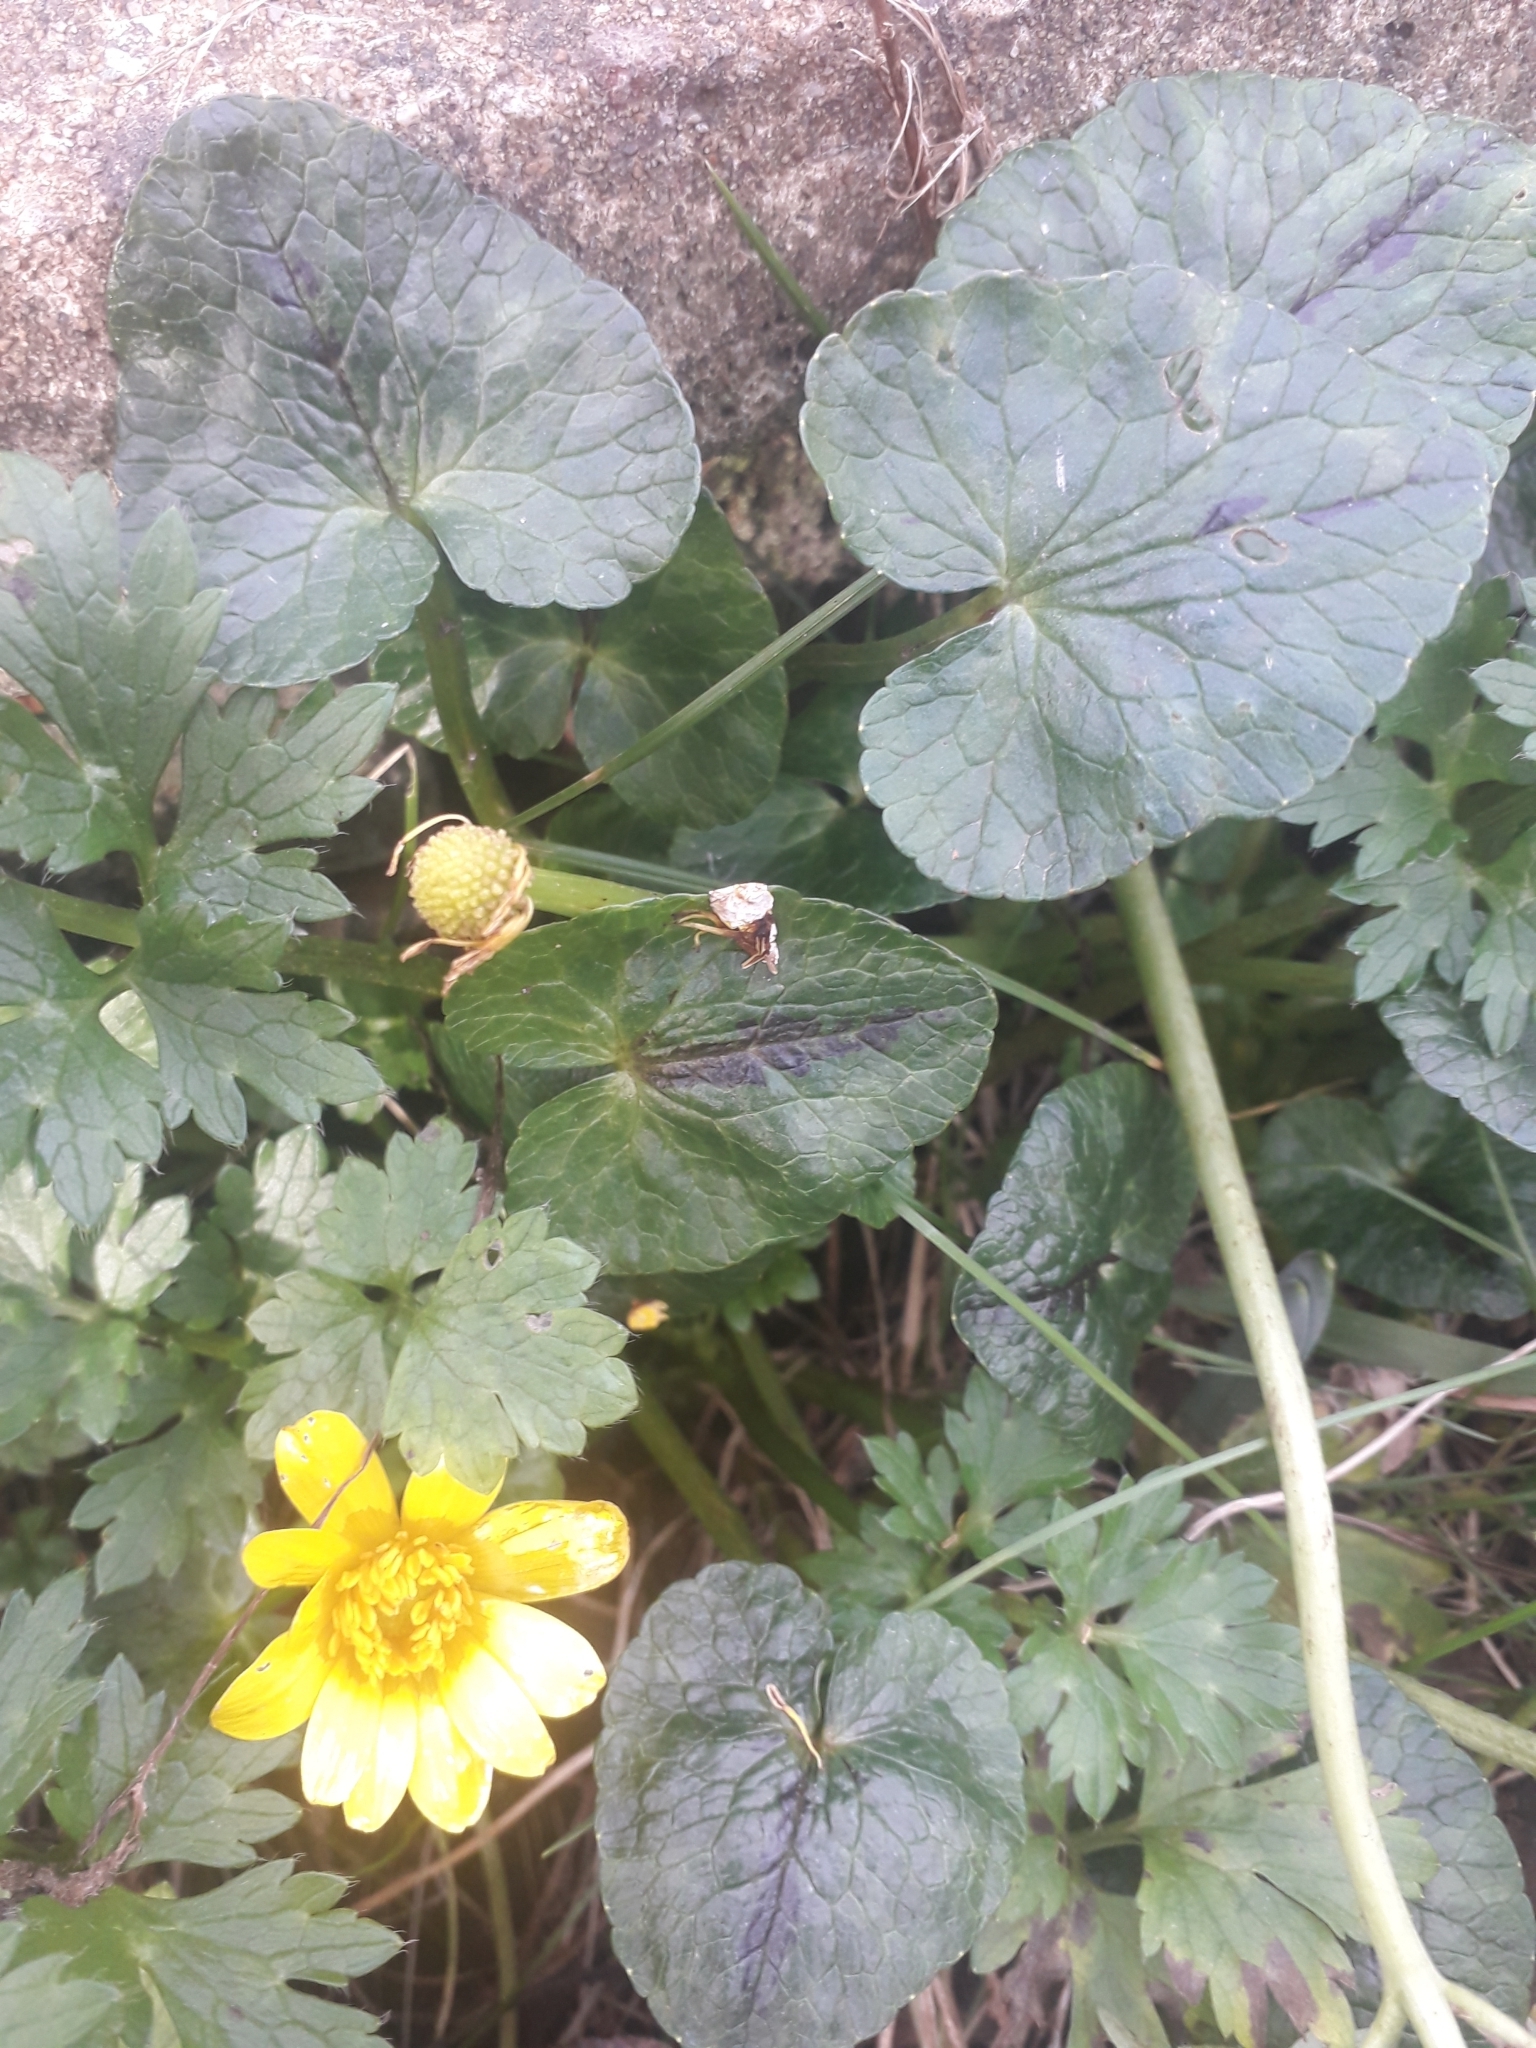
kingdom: Plantae
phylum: Tracheophyta
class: Magnoliopsida
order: Ranunculales
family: Ranunculaceae
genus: Ficaria
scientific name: Ficaria verna
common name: Lesser celandine
